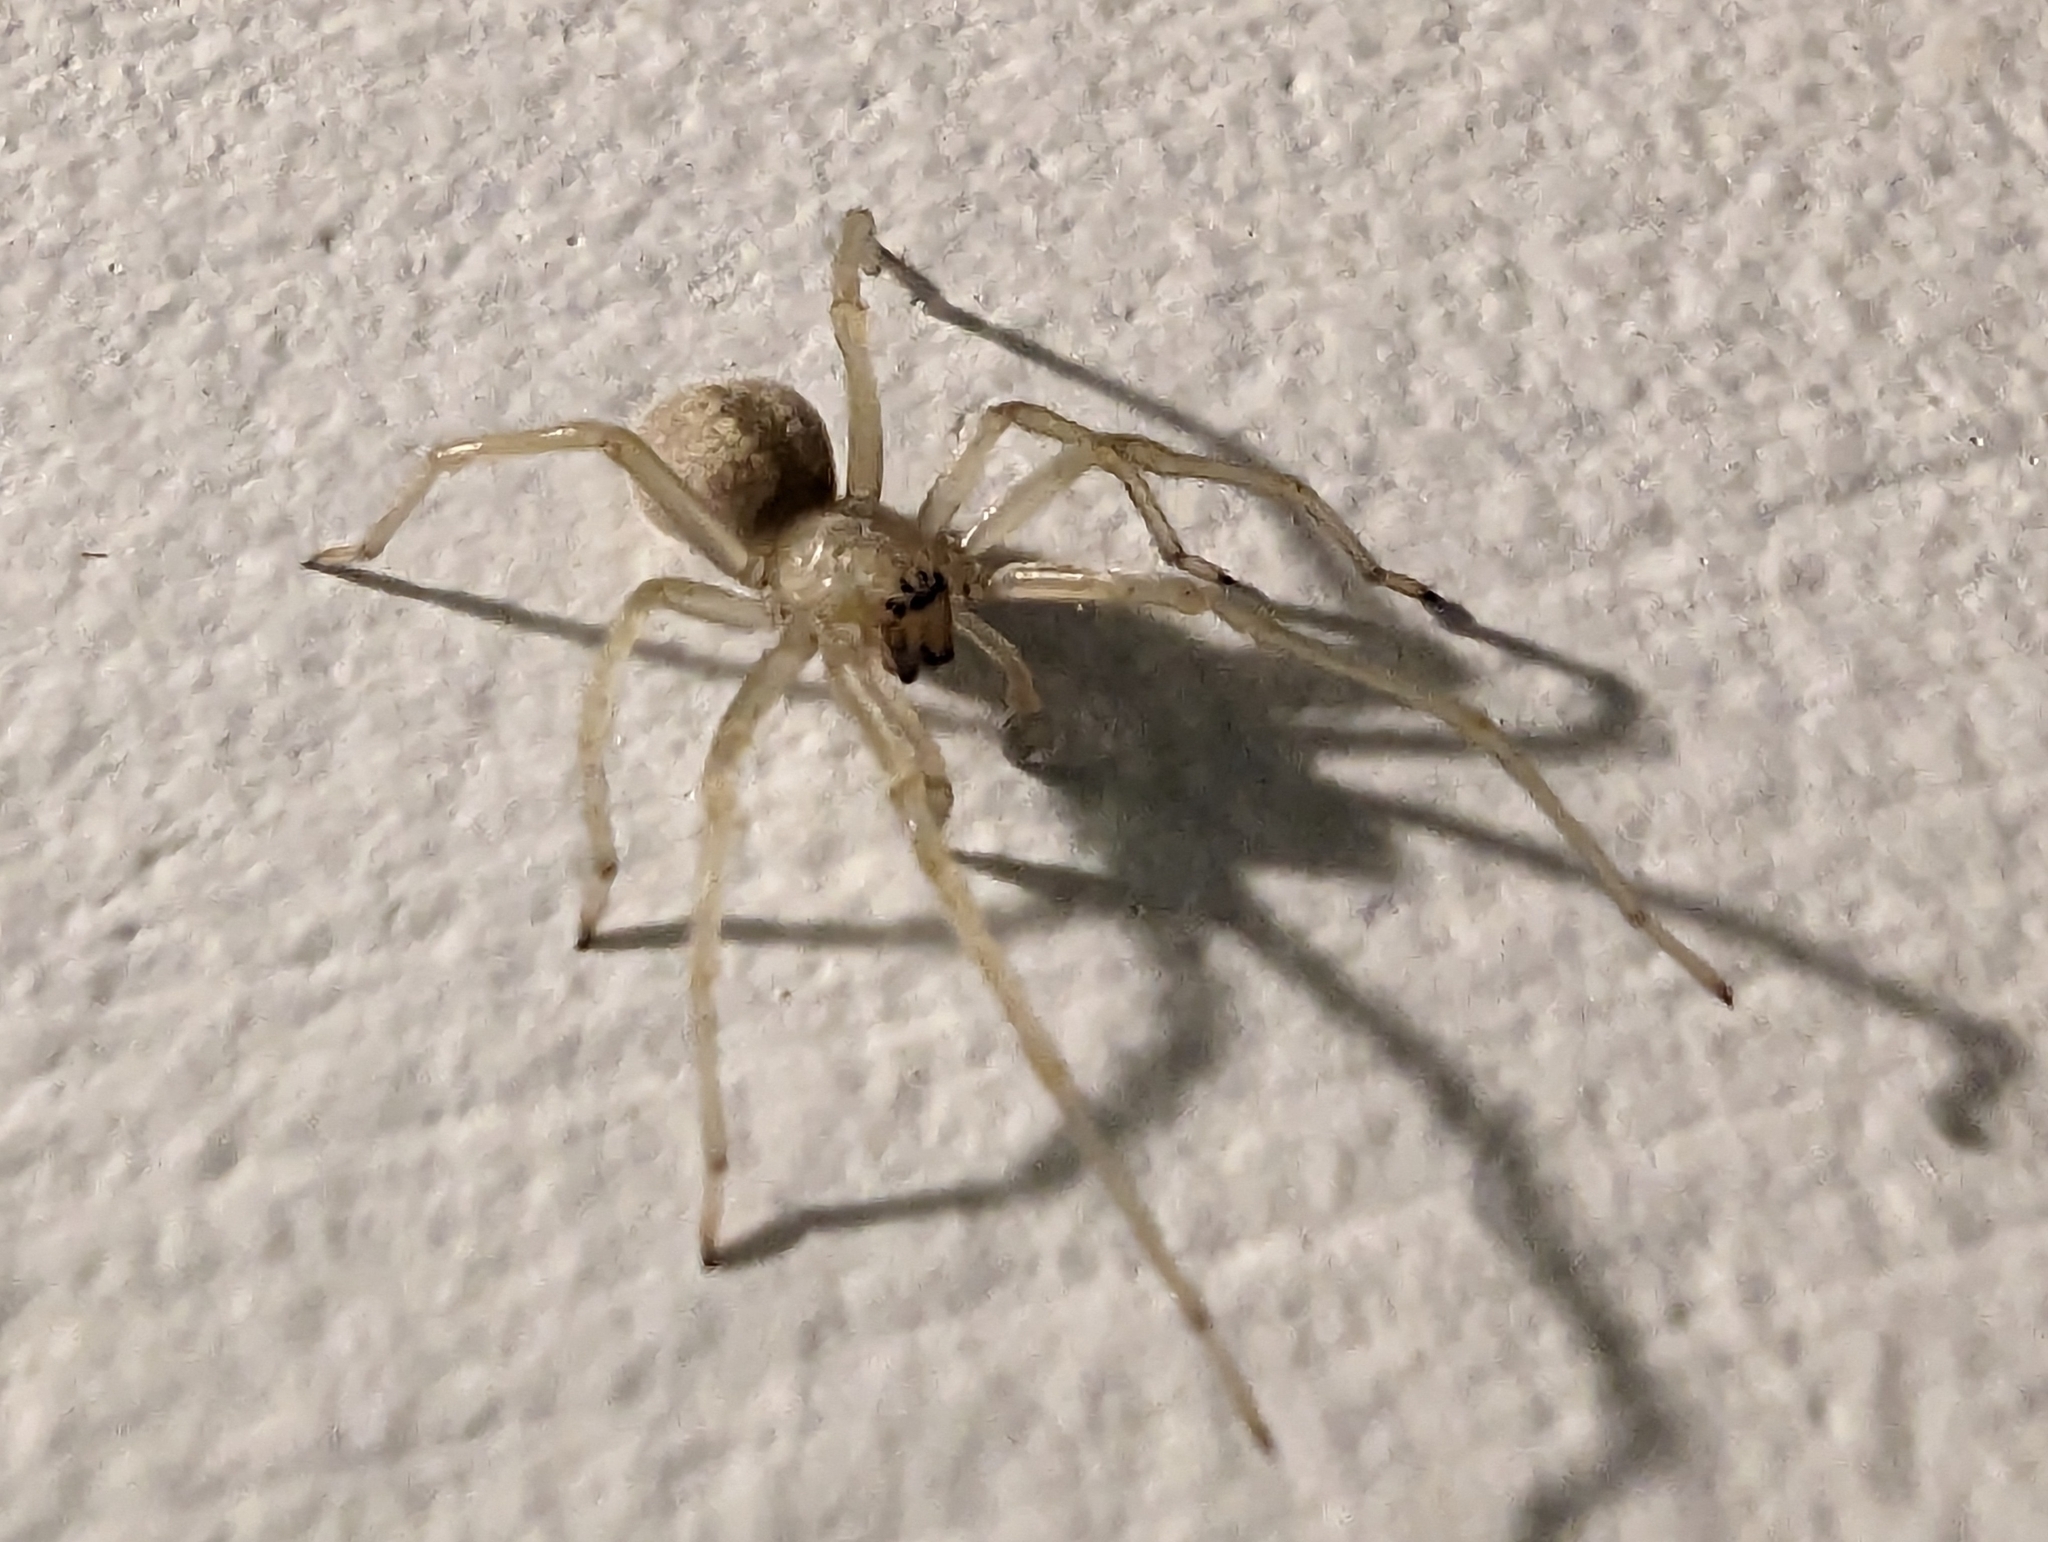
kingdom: Animalia
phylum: Arthropoda
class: Arachnida
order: Araneae
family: Cheiracanthiidae
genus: Cheiracanthium
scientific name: Cheiracanthium mildei
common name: Northern yellow sac spider
